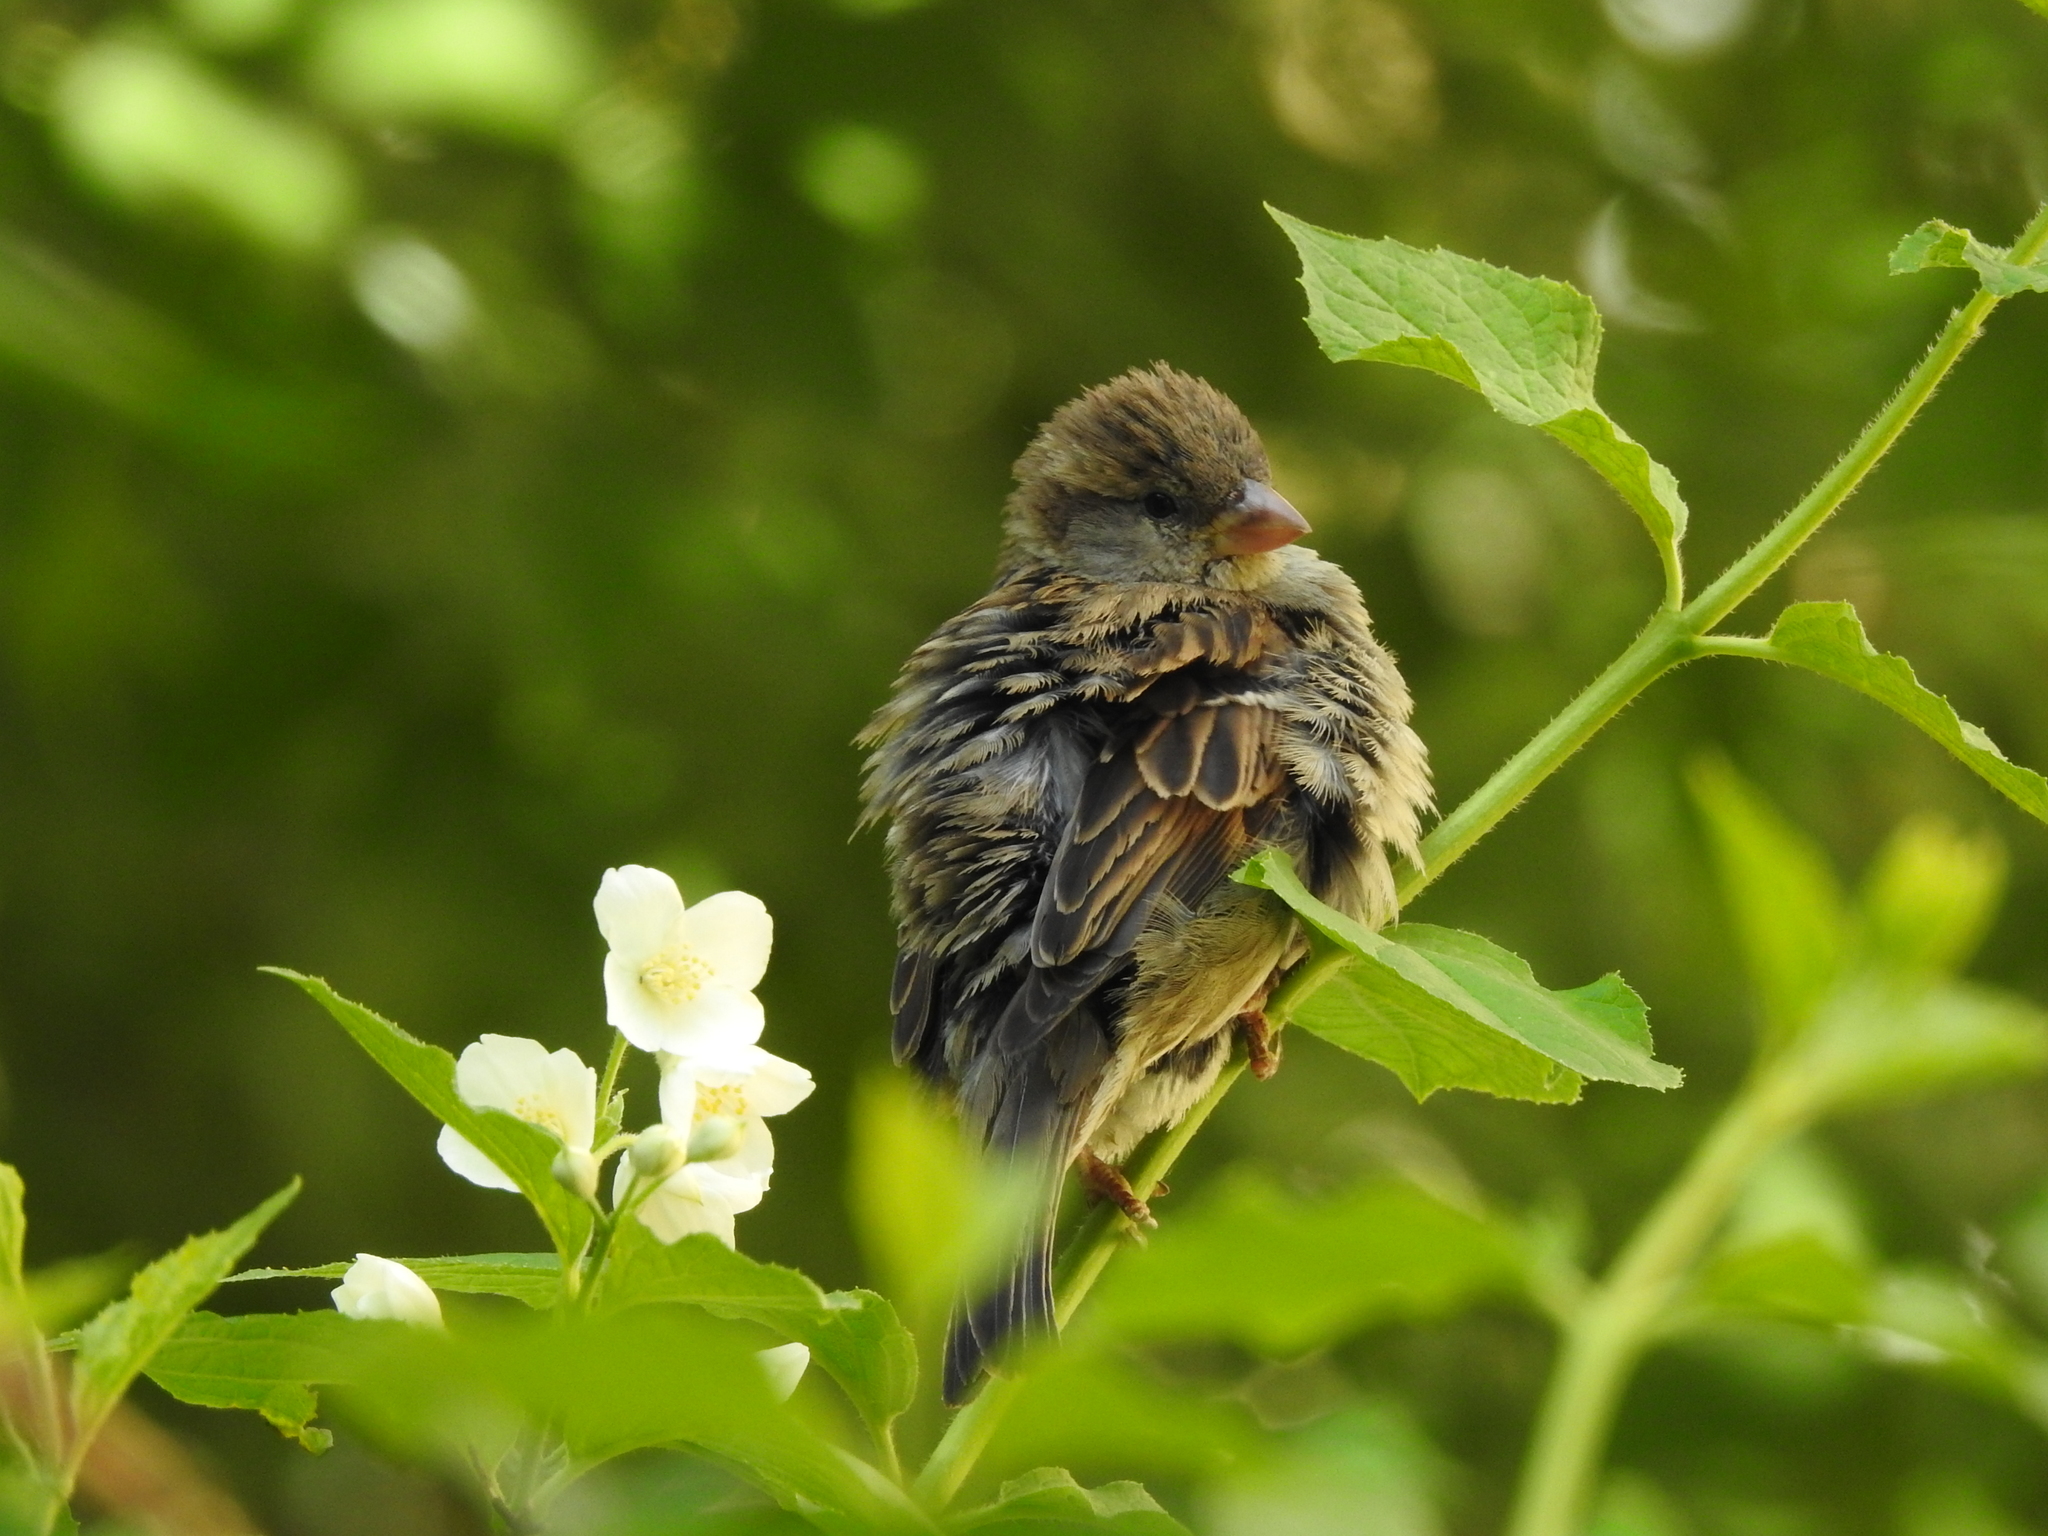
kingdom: Animalia
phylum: Chordata
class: Aves
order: Passeriformes
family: Passeridae
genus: Passer
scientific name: Passer domesticus
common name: House sparrow
